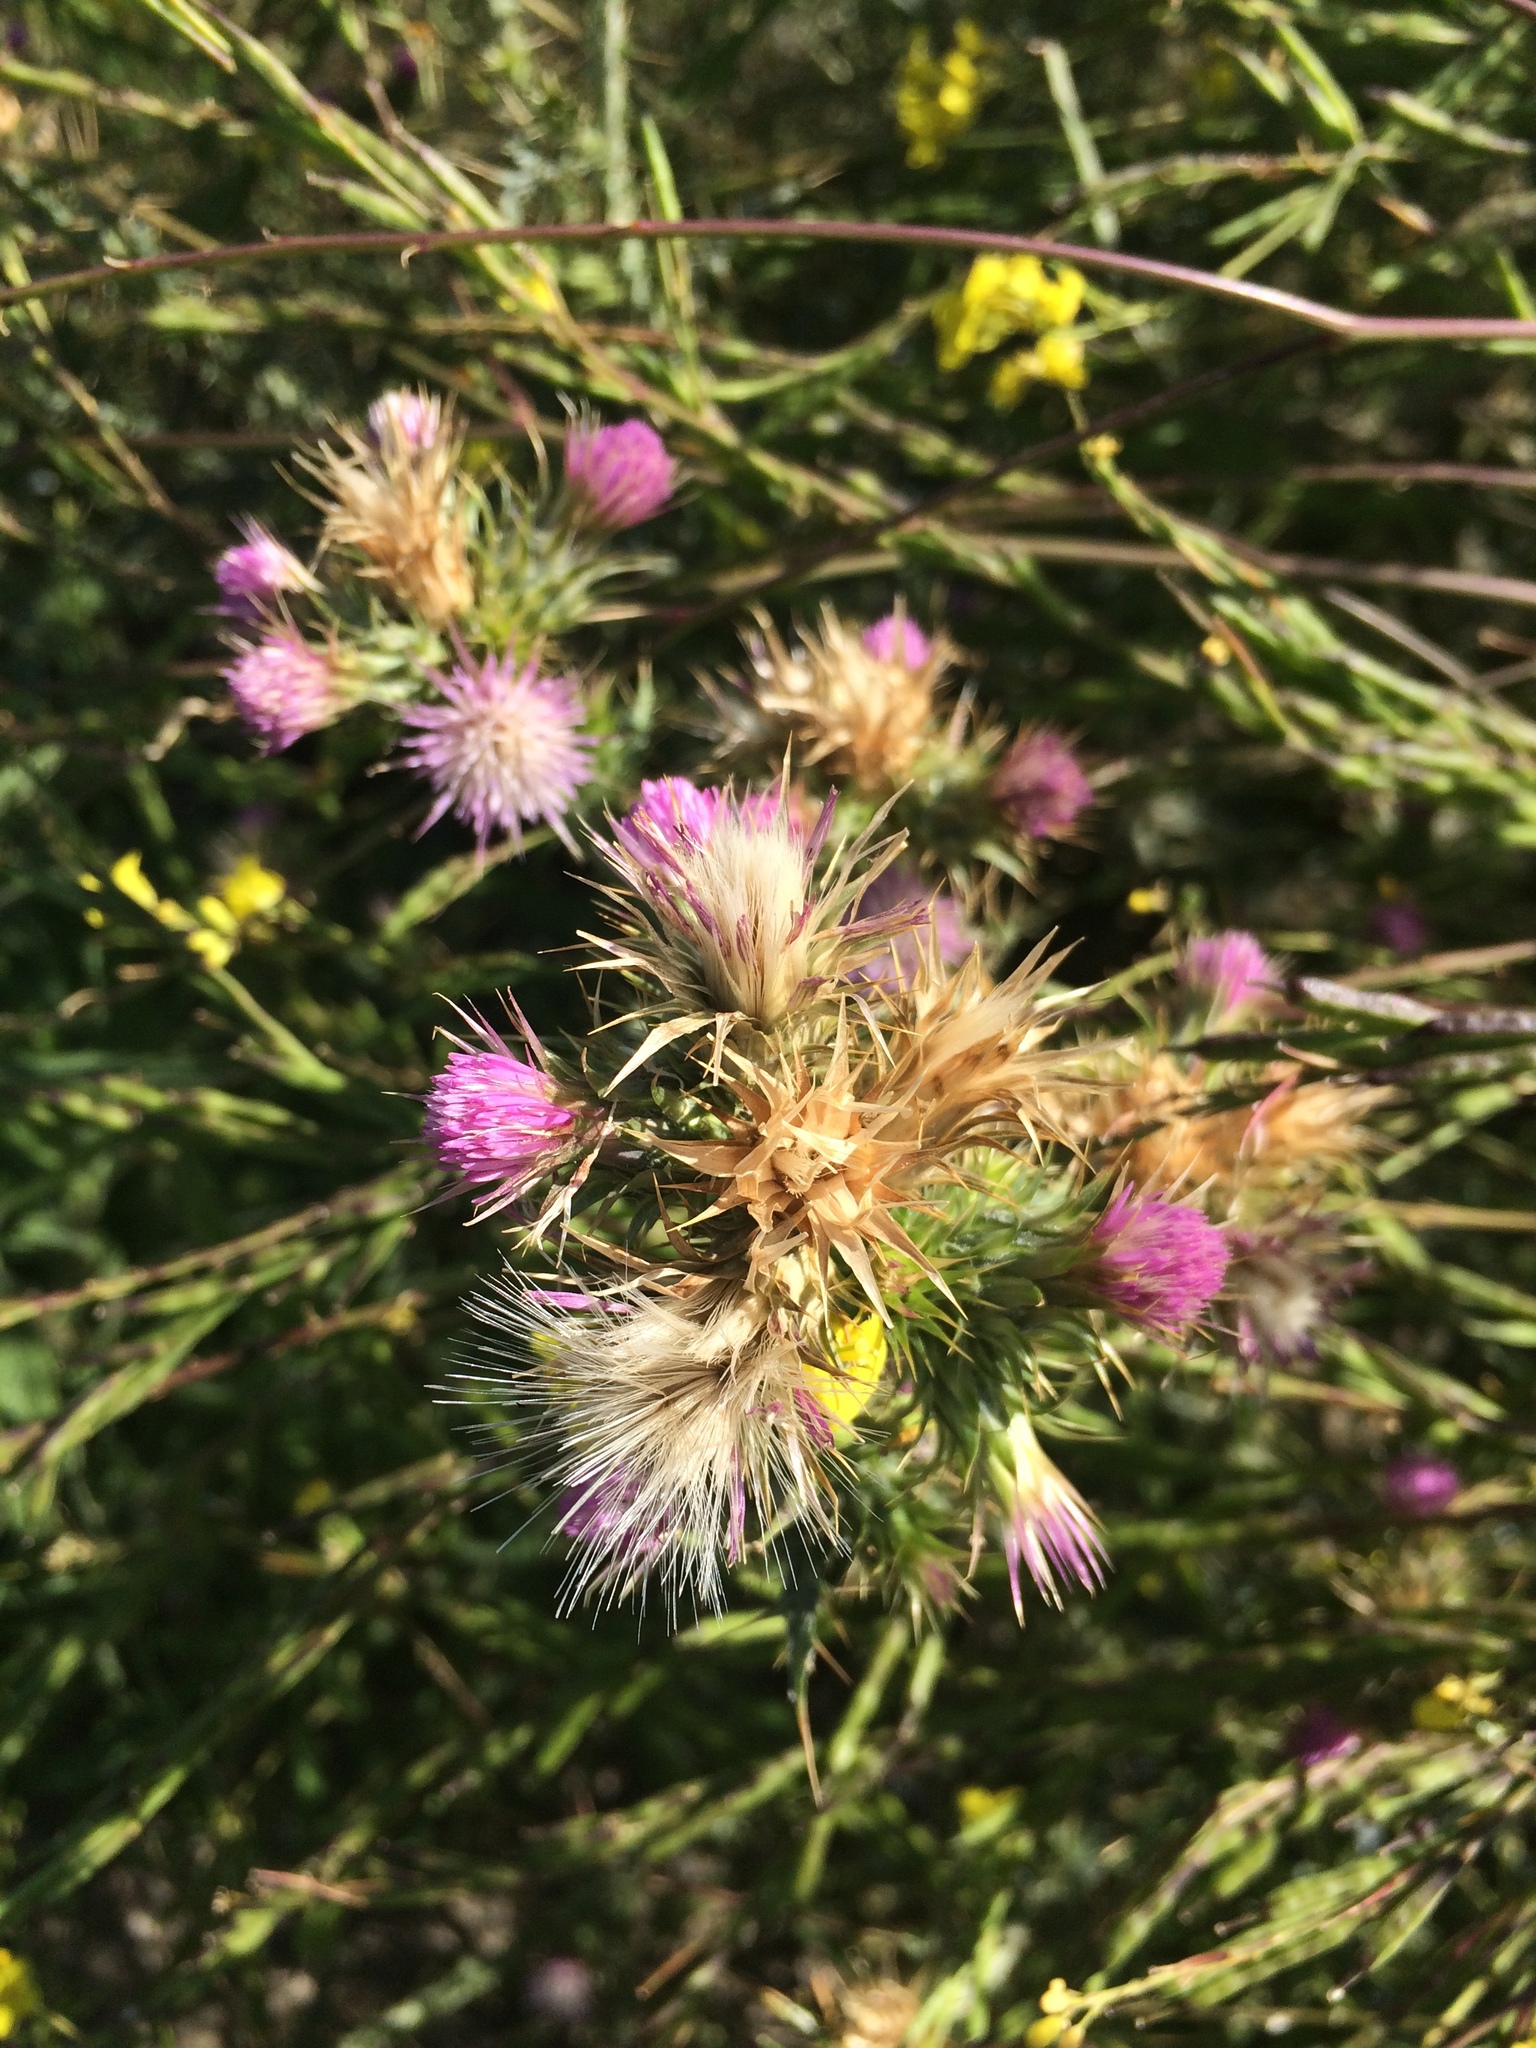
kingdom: Plantae
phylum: Tracheophyta
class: Magnoliopsida
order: Asterales
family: Asteraceae
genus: Carduus
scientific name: Carduus tenuiflorus
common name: Slender thistle
